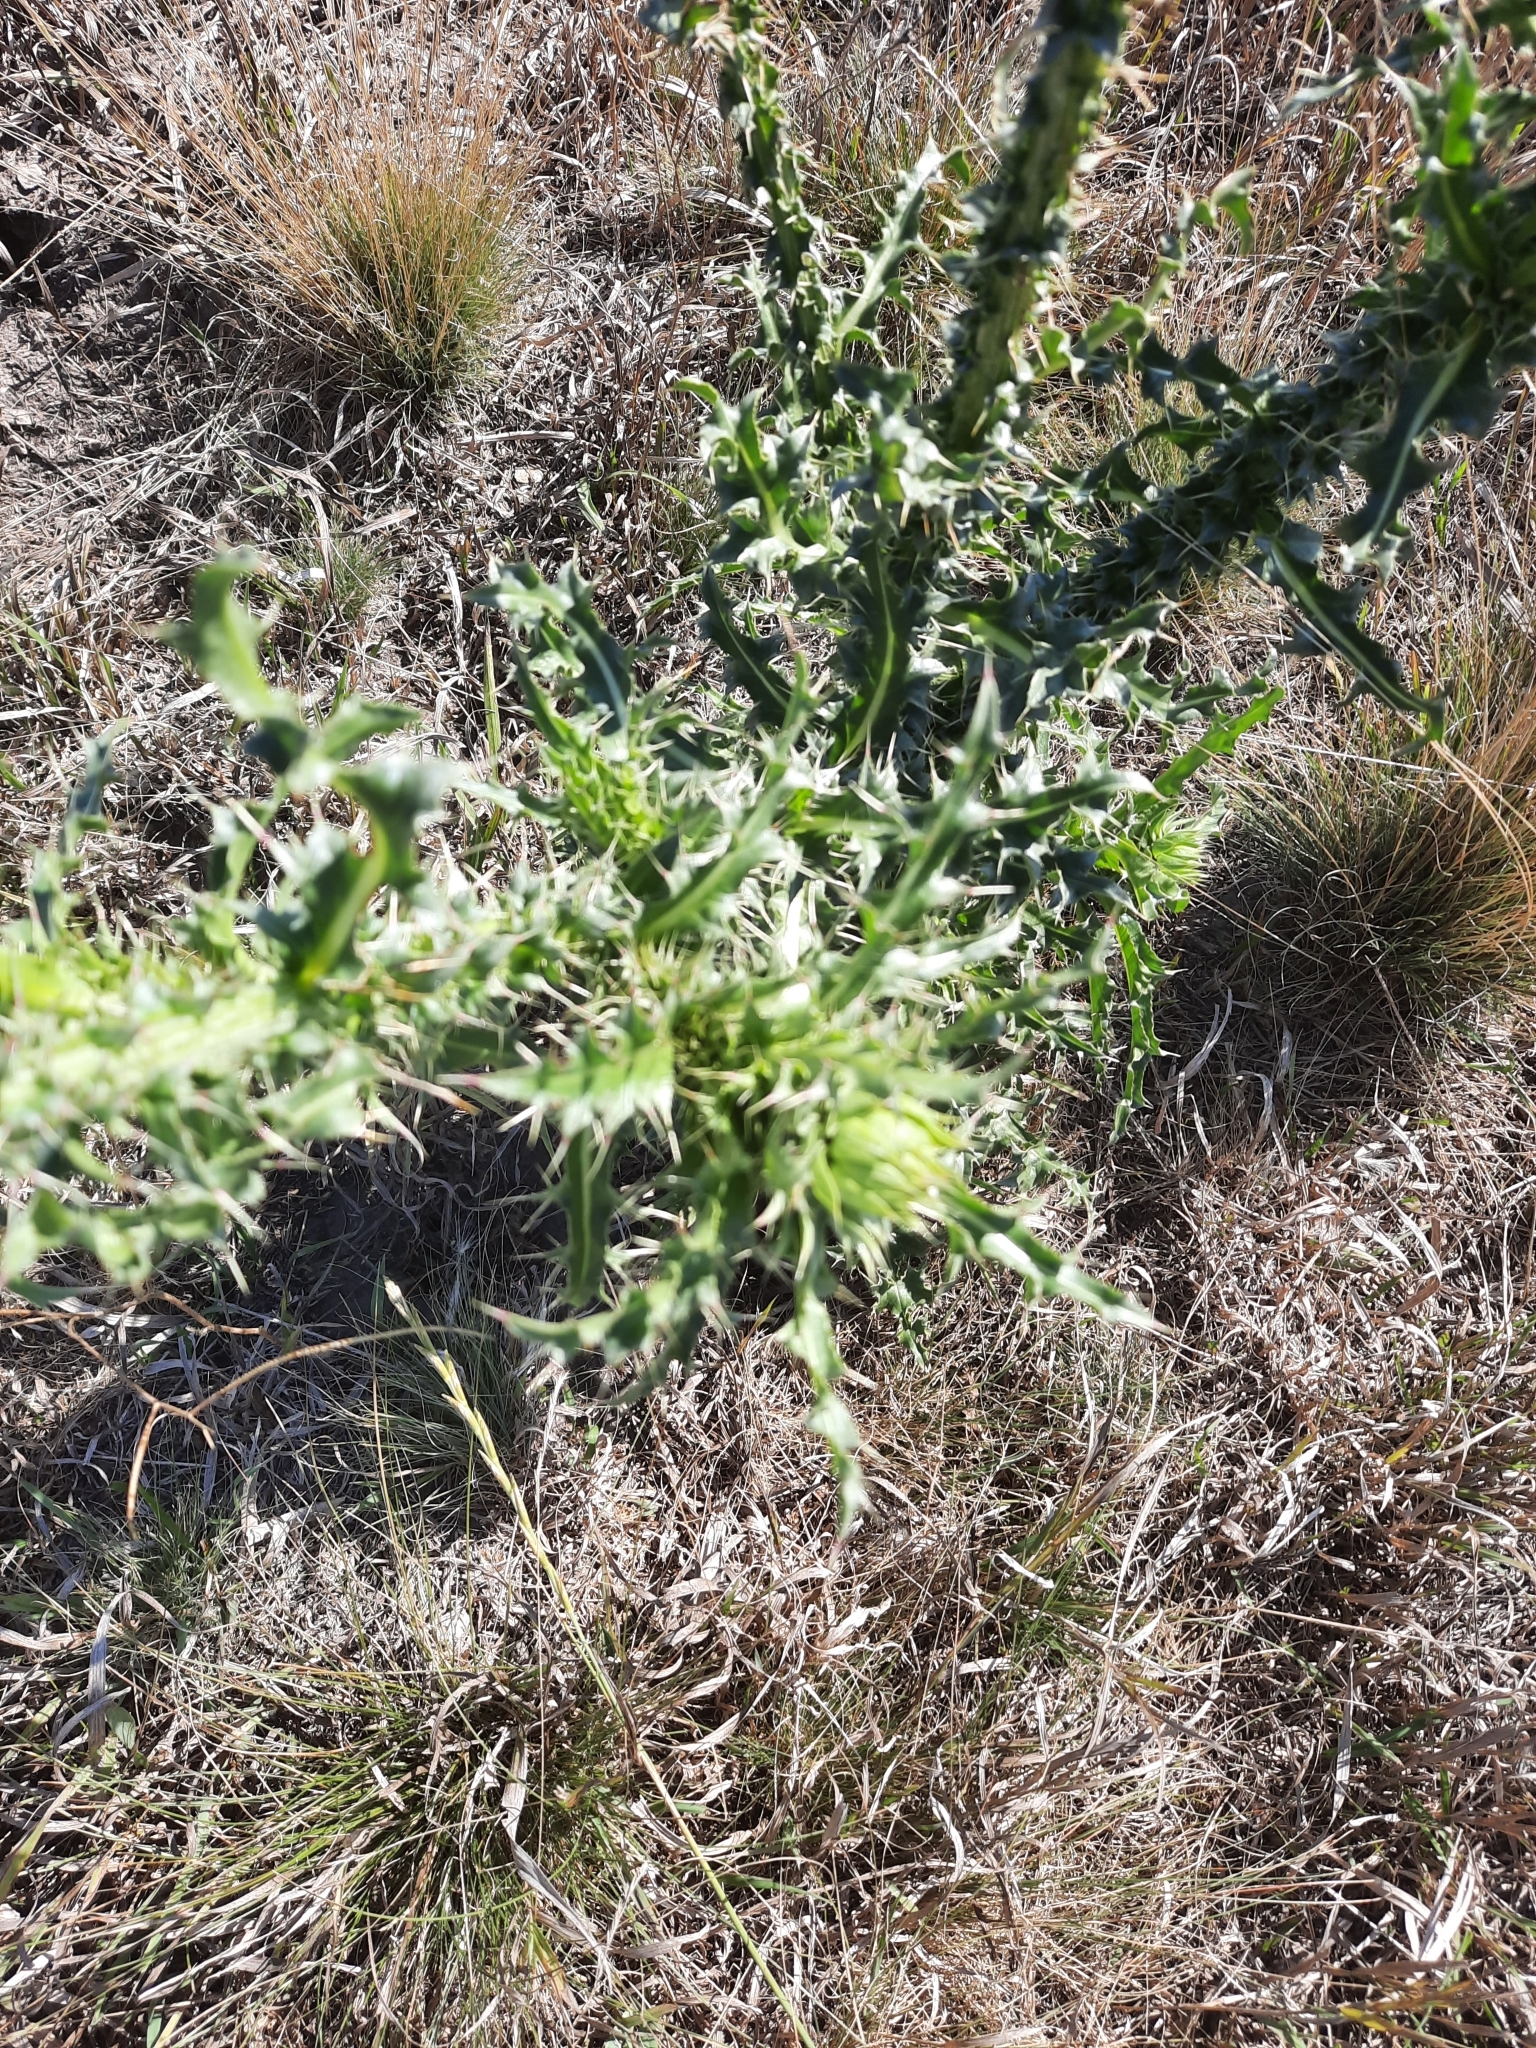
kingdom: Plantae
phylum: Tracheophyta
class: Magnoliopsida
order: Asterales
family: Asteraceae
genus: Carduus
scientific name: Carduus nutans
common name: Musk thistle
